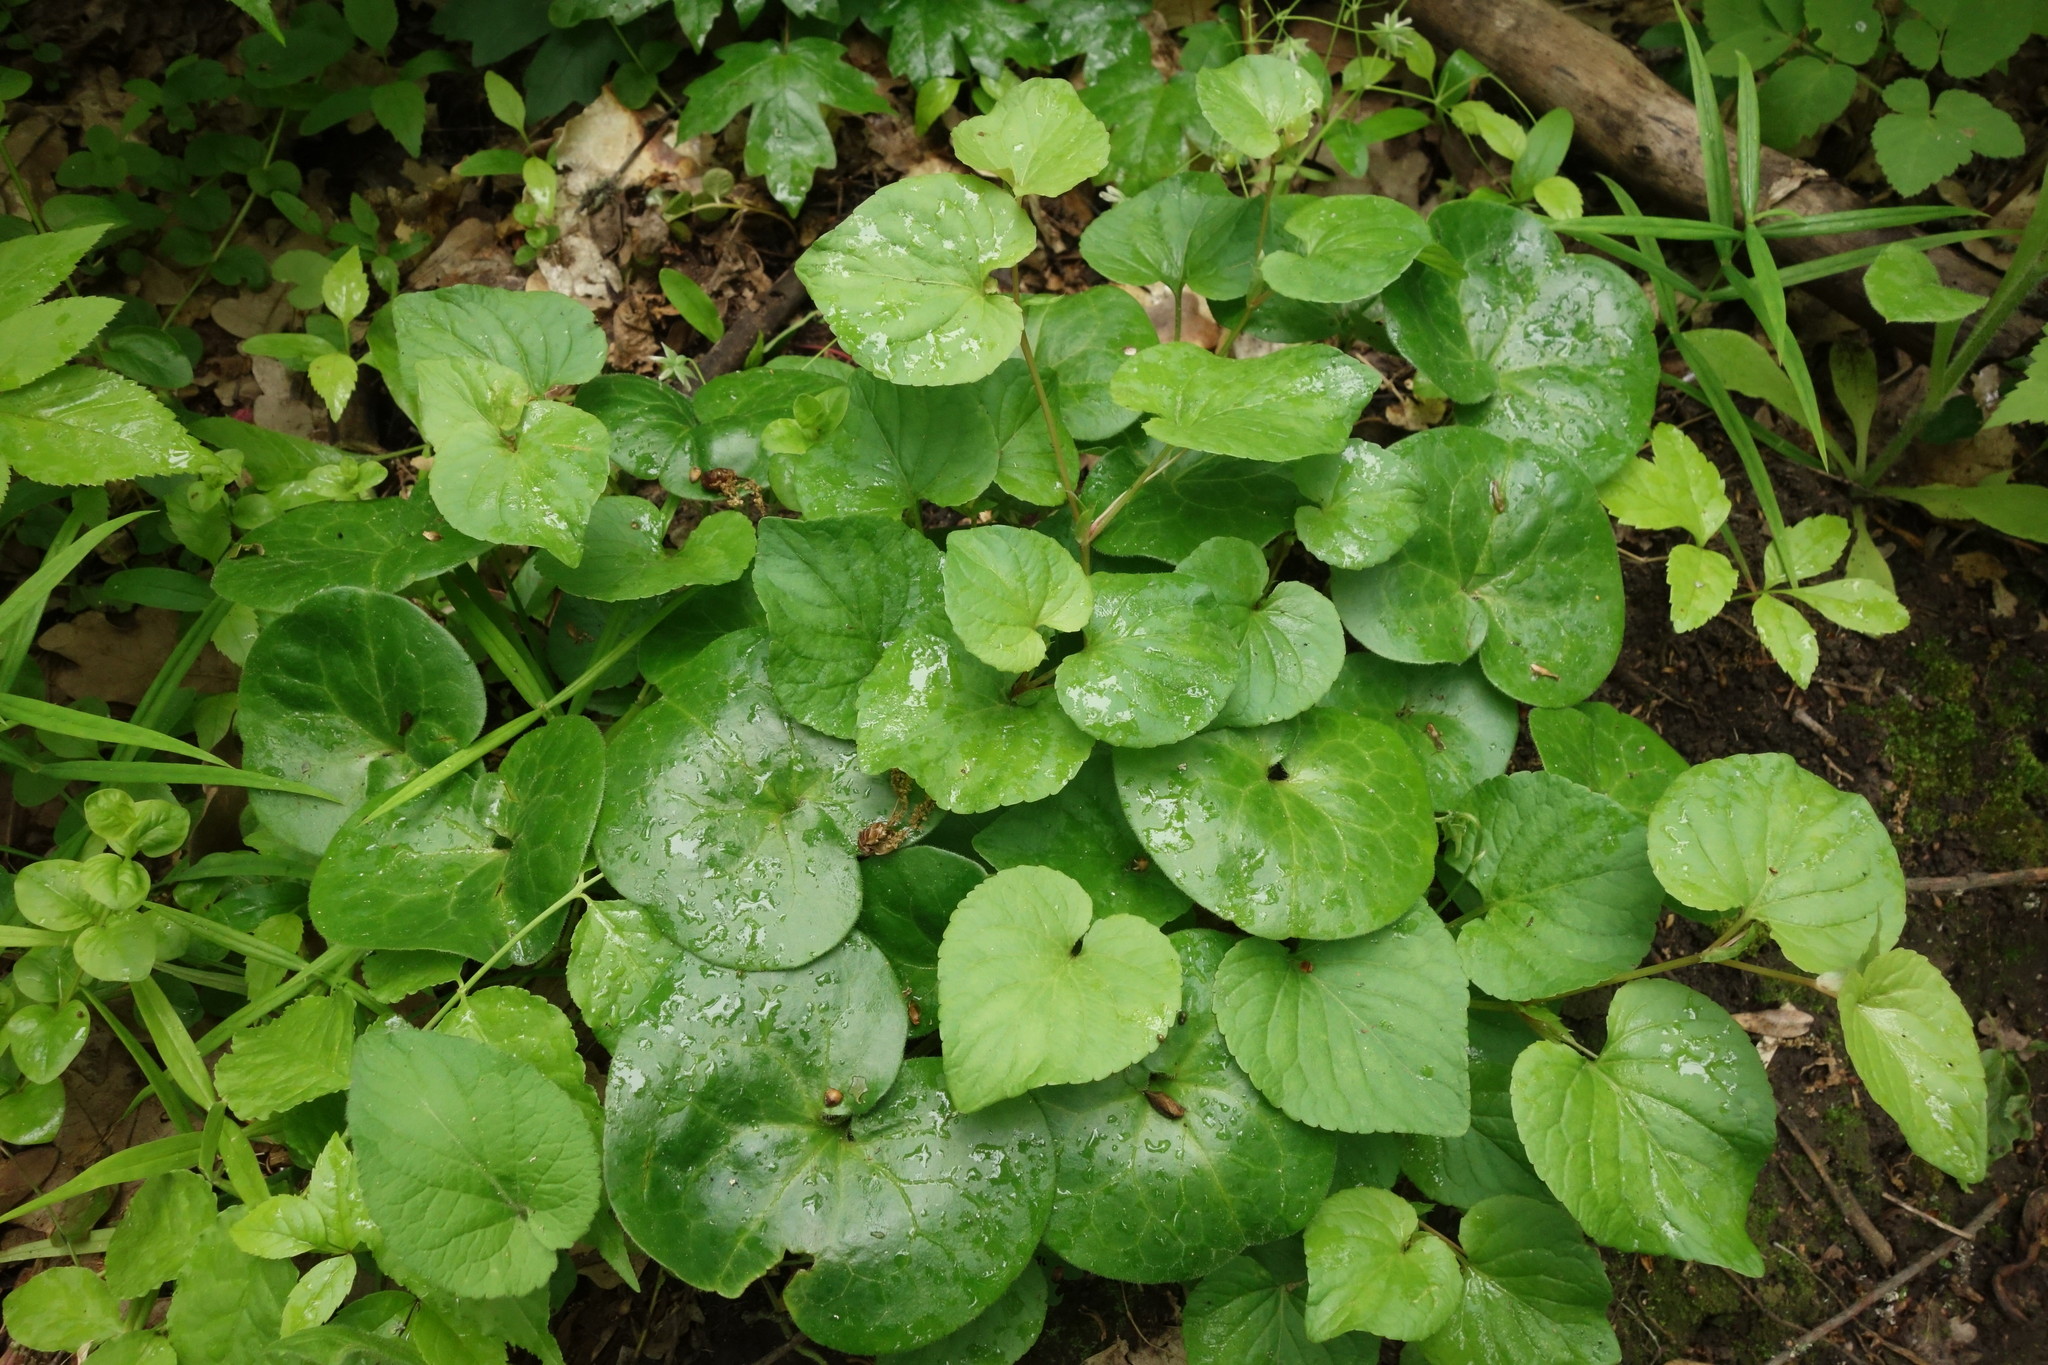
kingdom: Plantae
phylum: Tracheophyta
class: Magnoliopsida
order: Piperales
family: Aristolochiaceae
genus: Asarum
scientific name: Asarum europaeum
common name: Asarabacca
